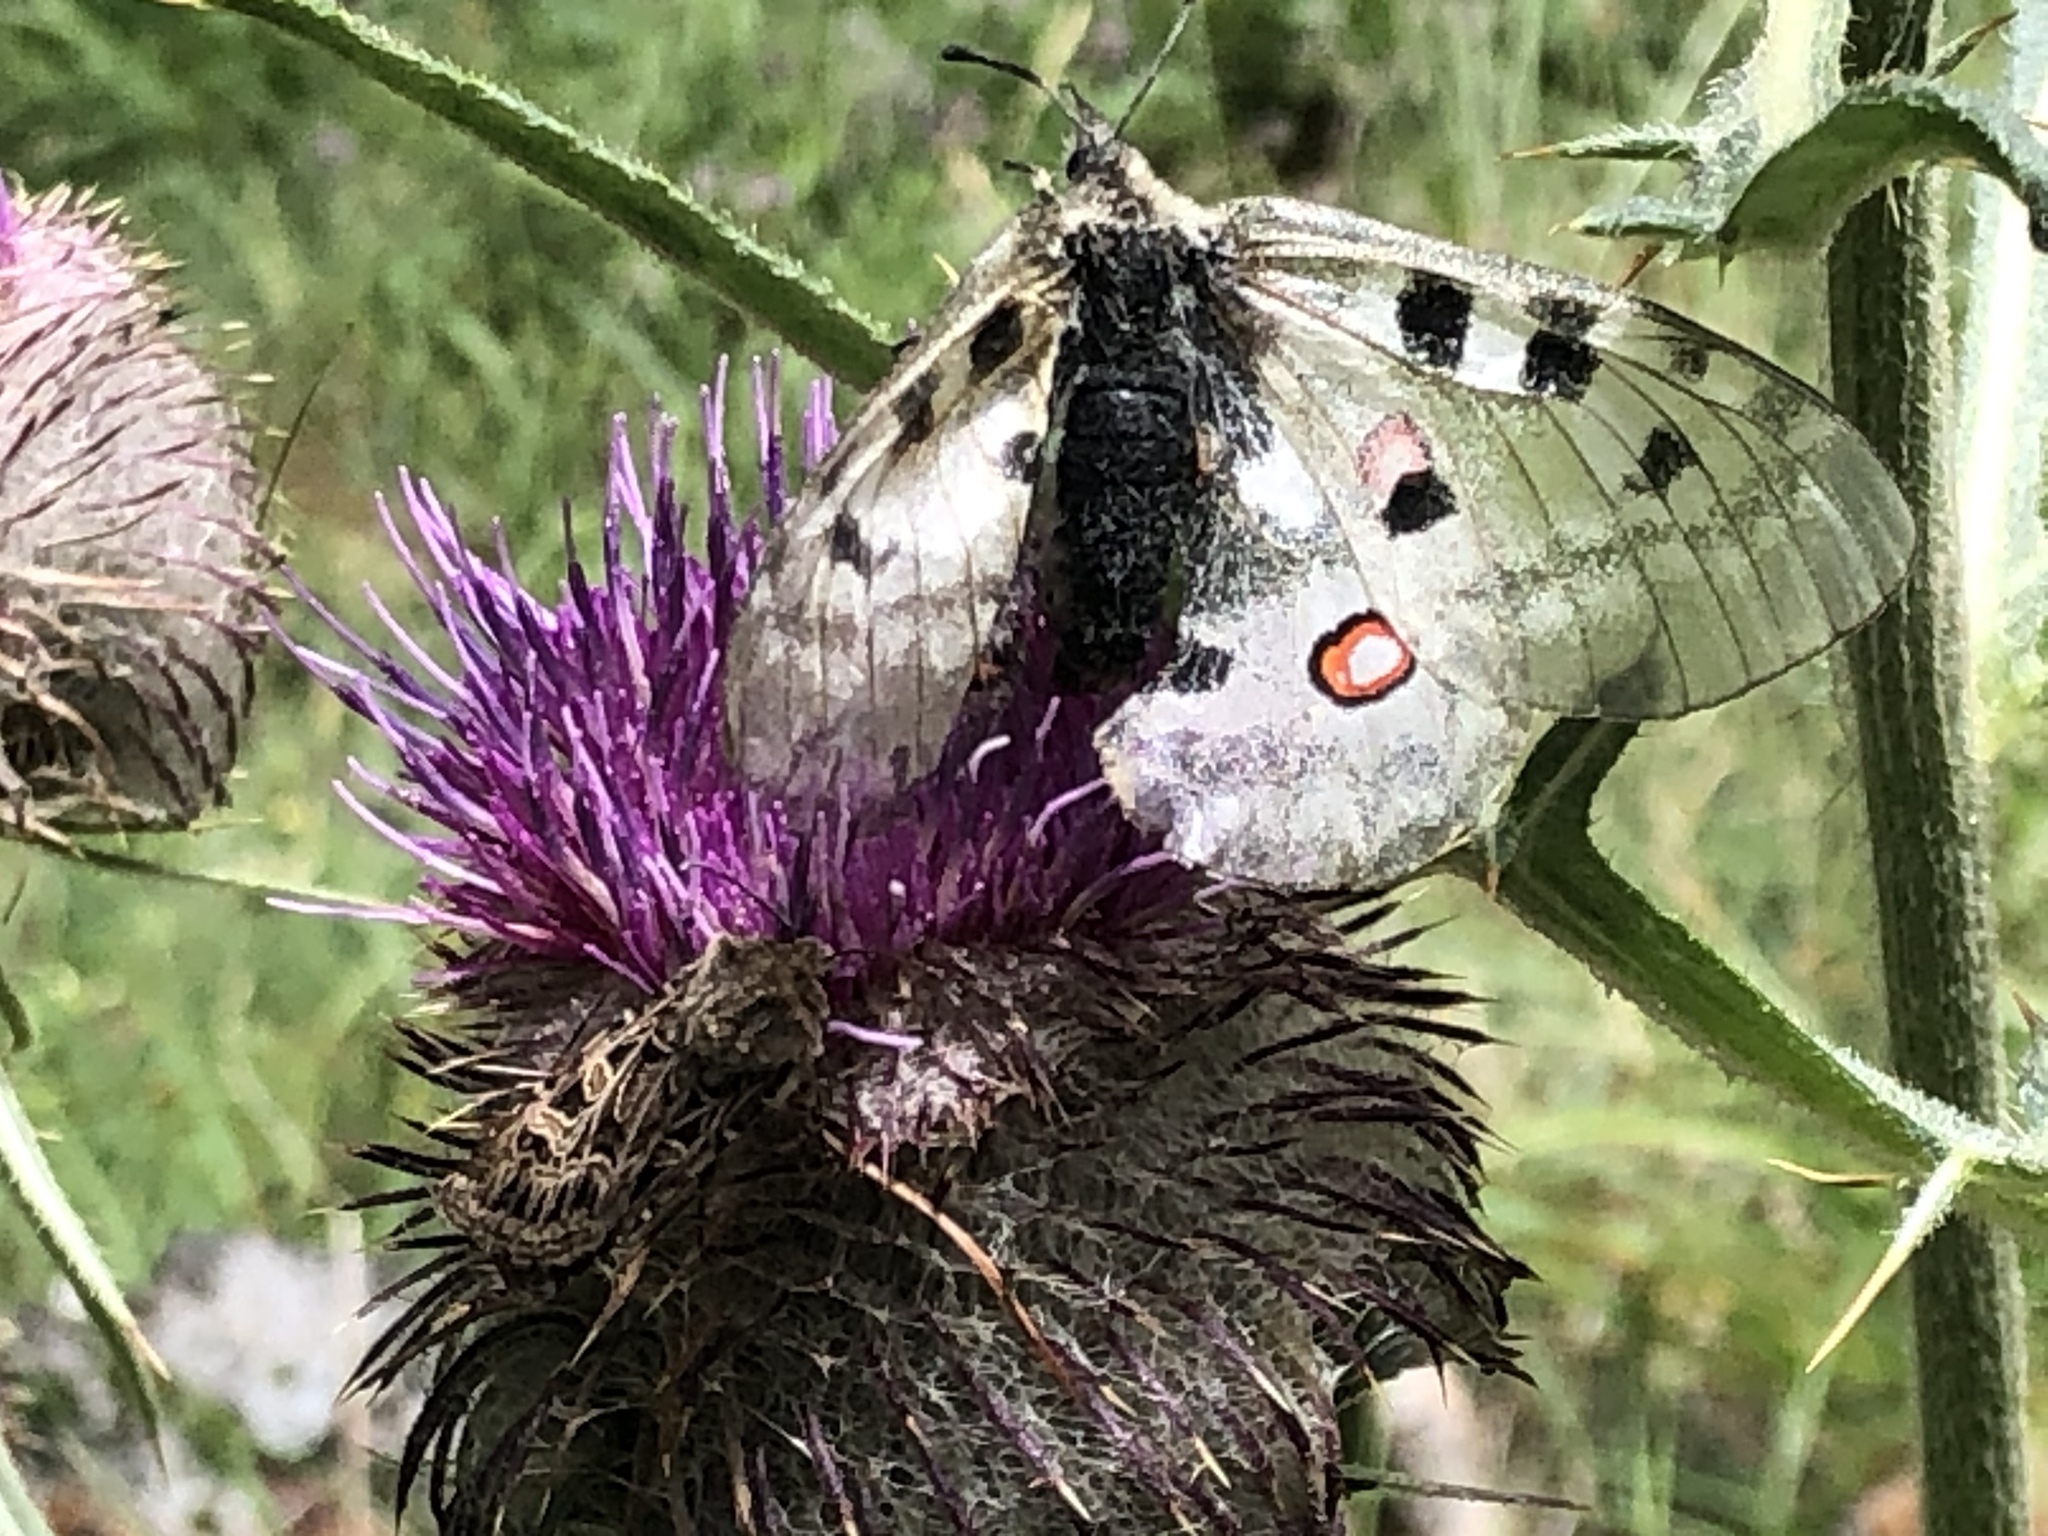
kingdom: Animalia
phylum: Arthropoda
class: Insecta
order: Lepidoptera
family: Papilionidae
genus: Parnassius
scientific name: Parnassius apollo
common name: Apollo
